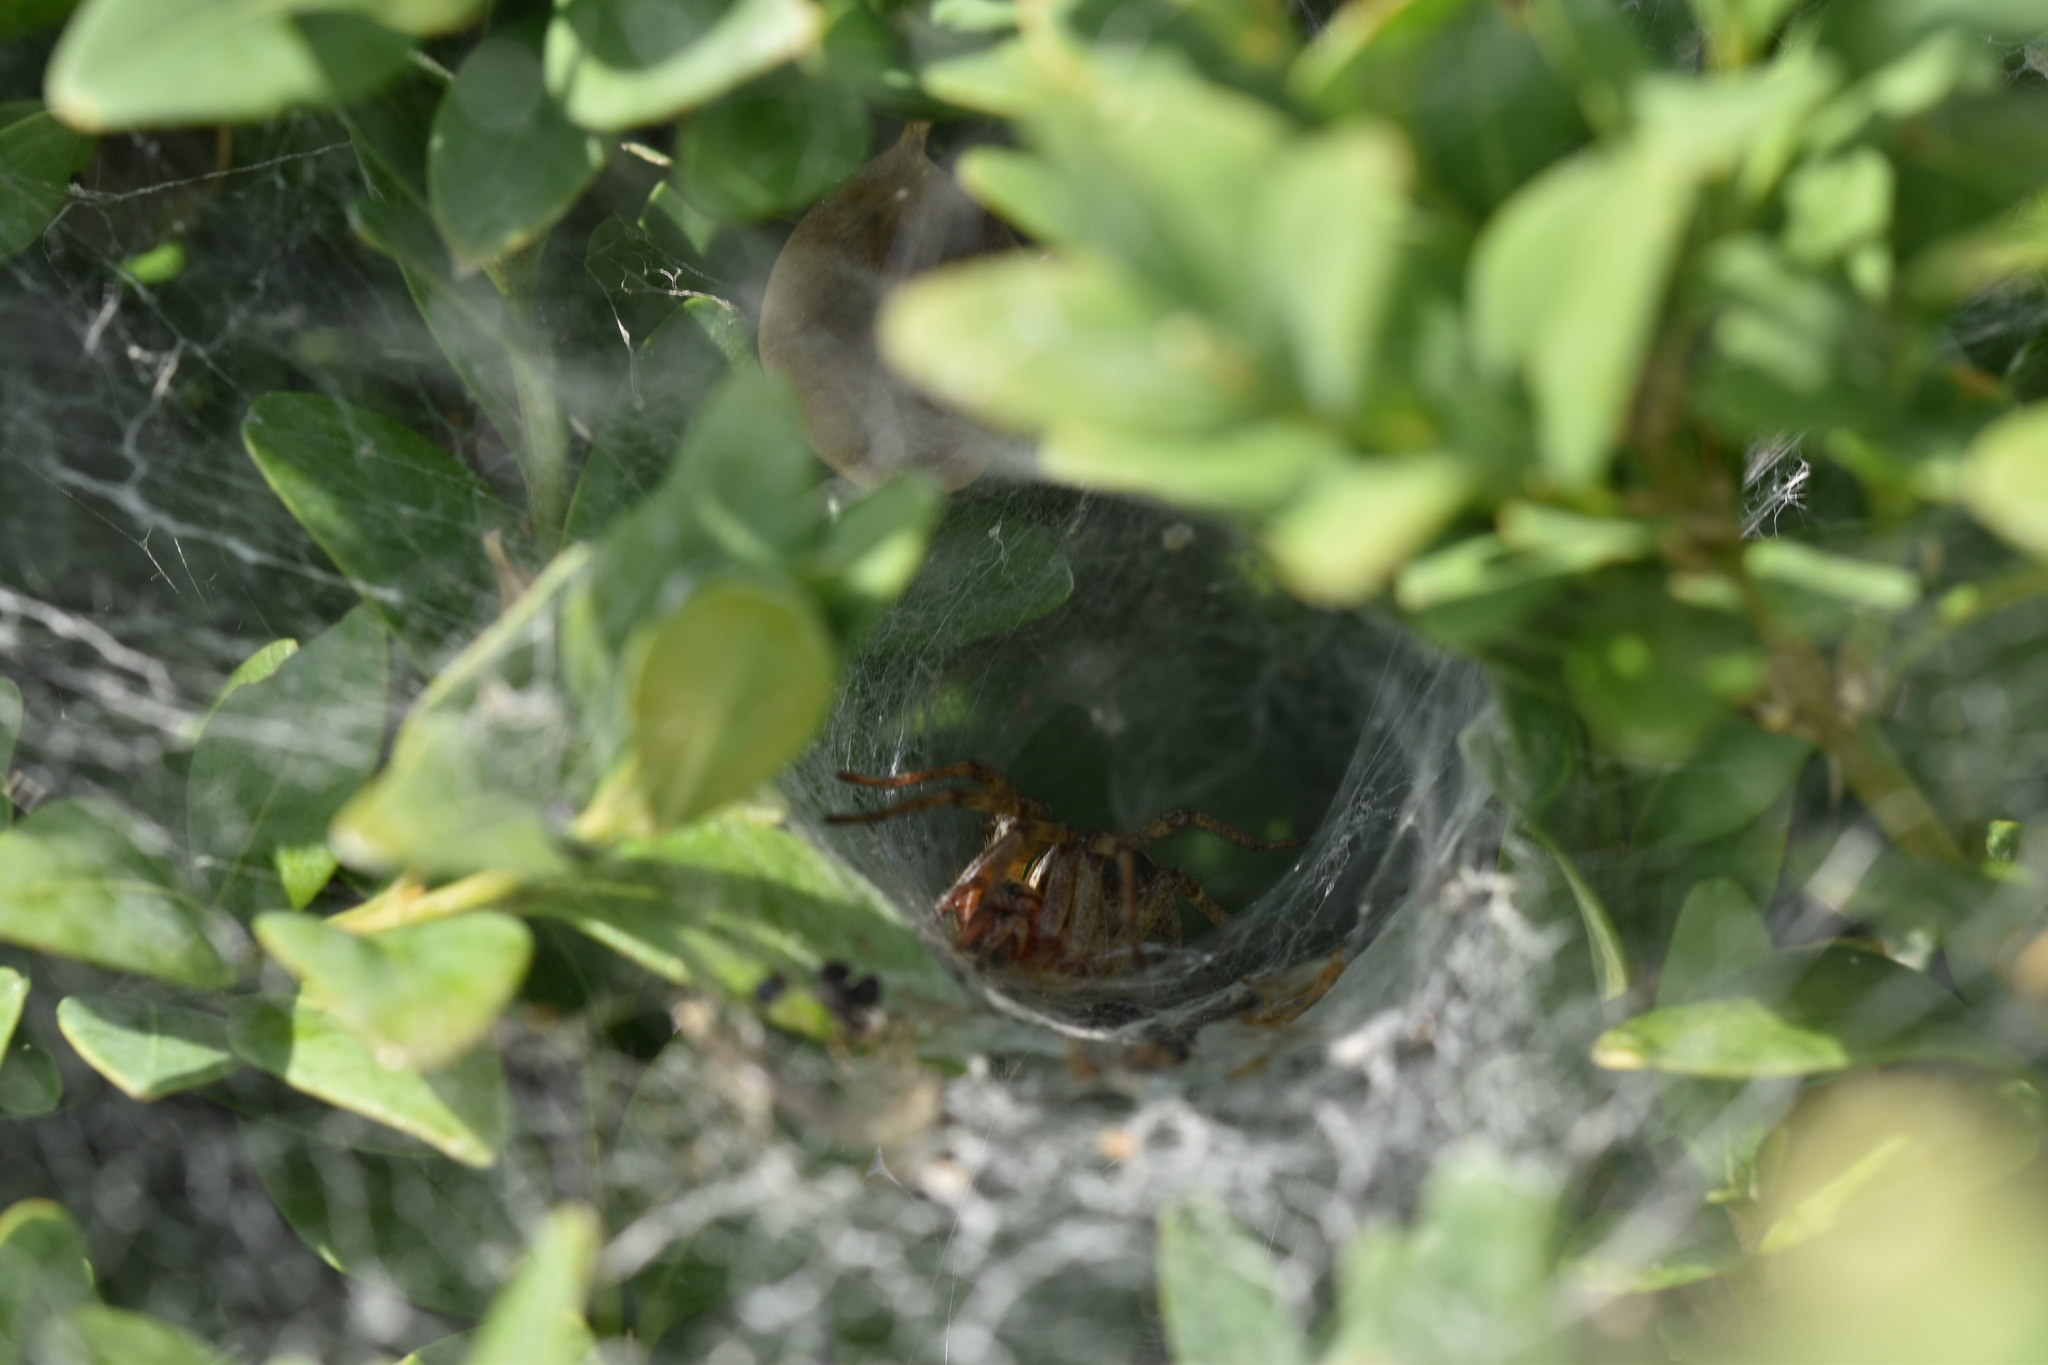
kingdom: Animalia
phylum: Arthropoda
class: Arachnida
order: Araneae
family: Agelenidae
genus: Agelena
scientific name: Agelena labyrinthica
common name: Labyrinth spider
